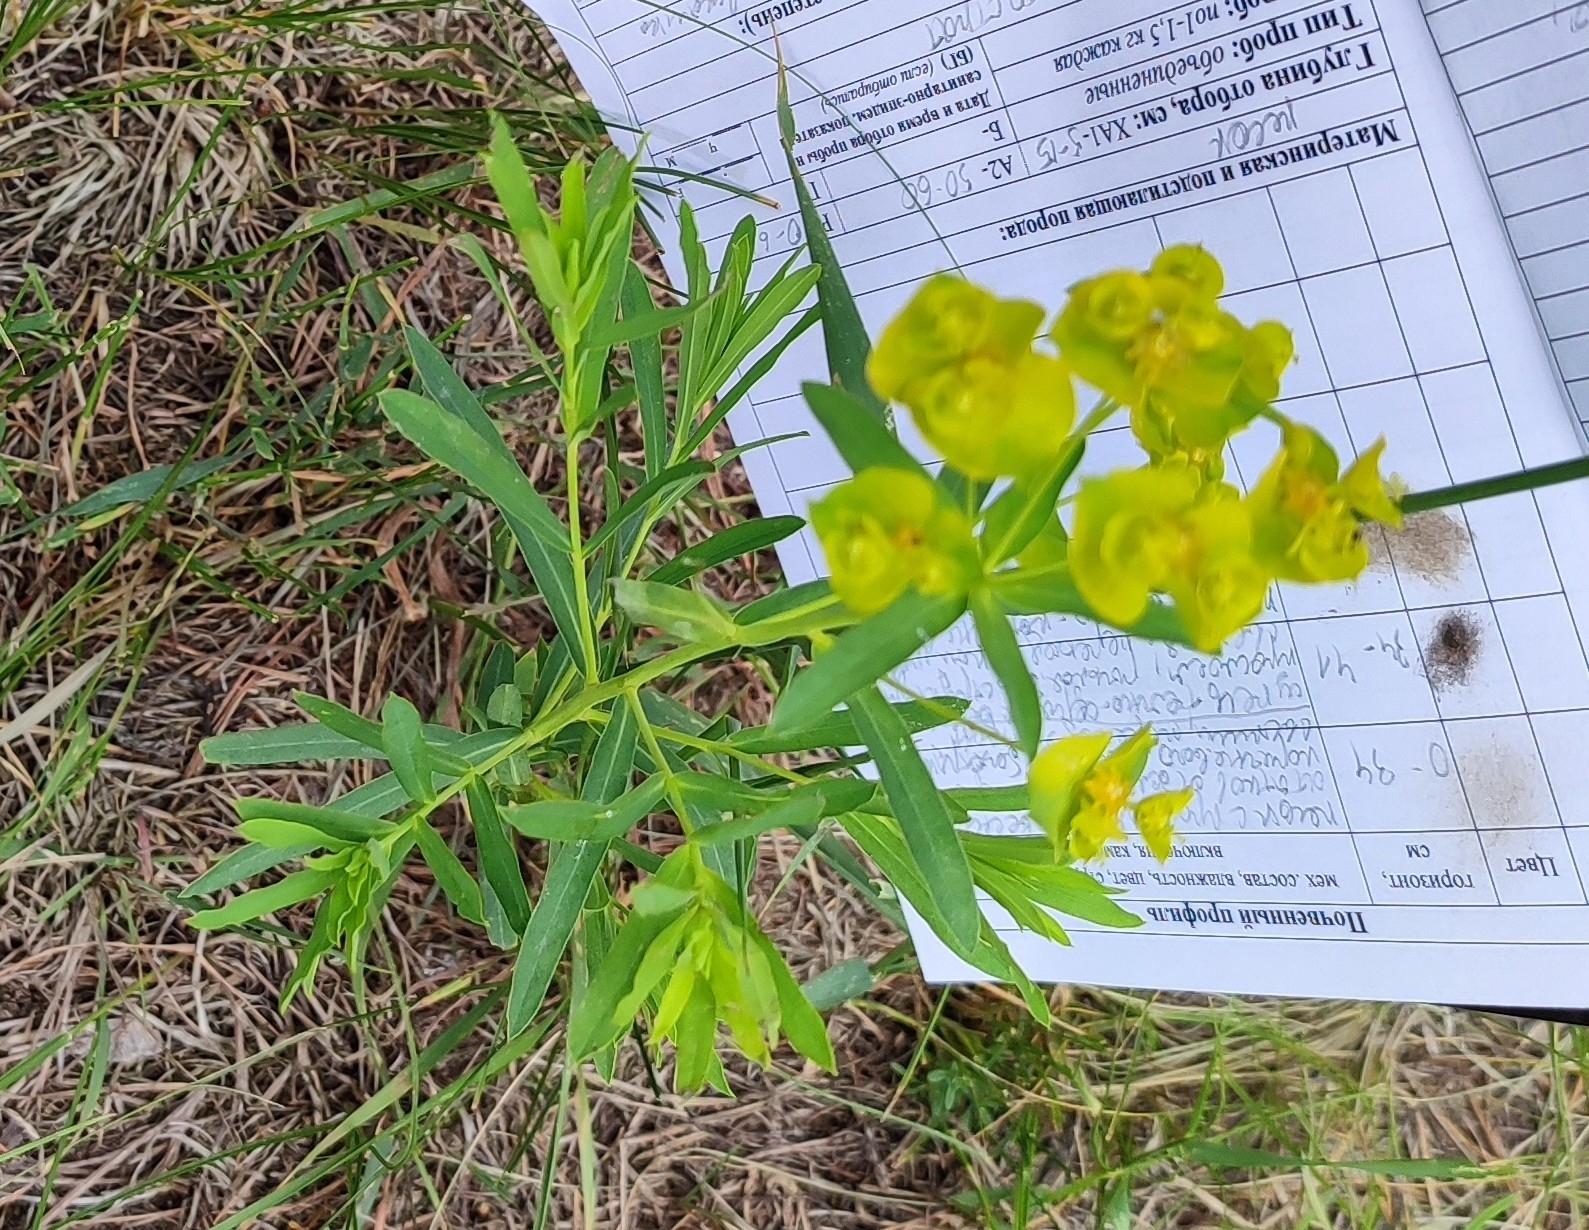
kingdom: Plantae
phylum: Tracheophyta
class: Magnoliopsida
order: Malpighiales
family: Euphorbiaceae
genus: Euphorbia
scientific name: Euphorbia virgata
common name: Leafy spurge
